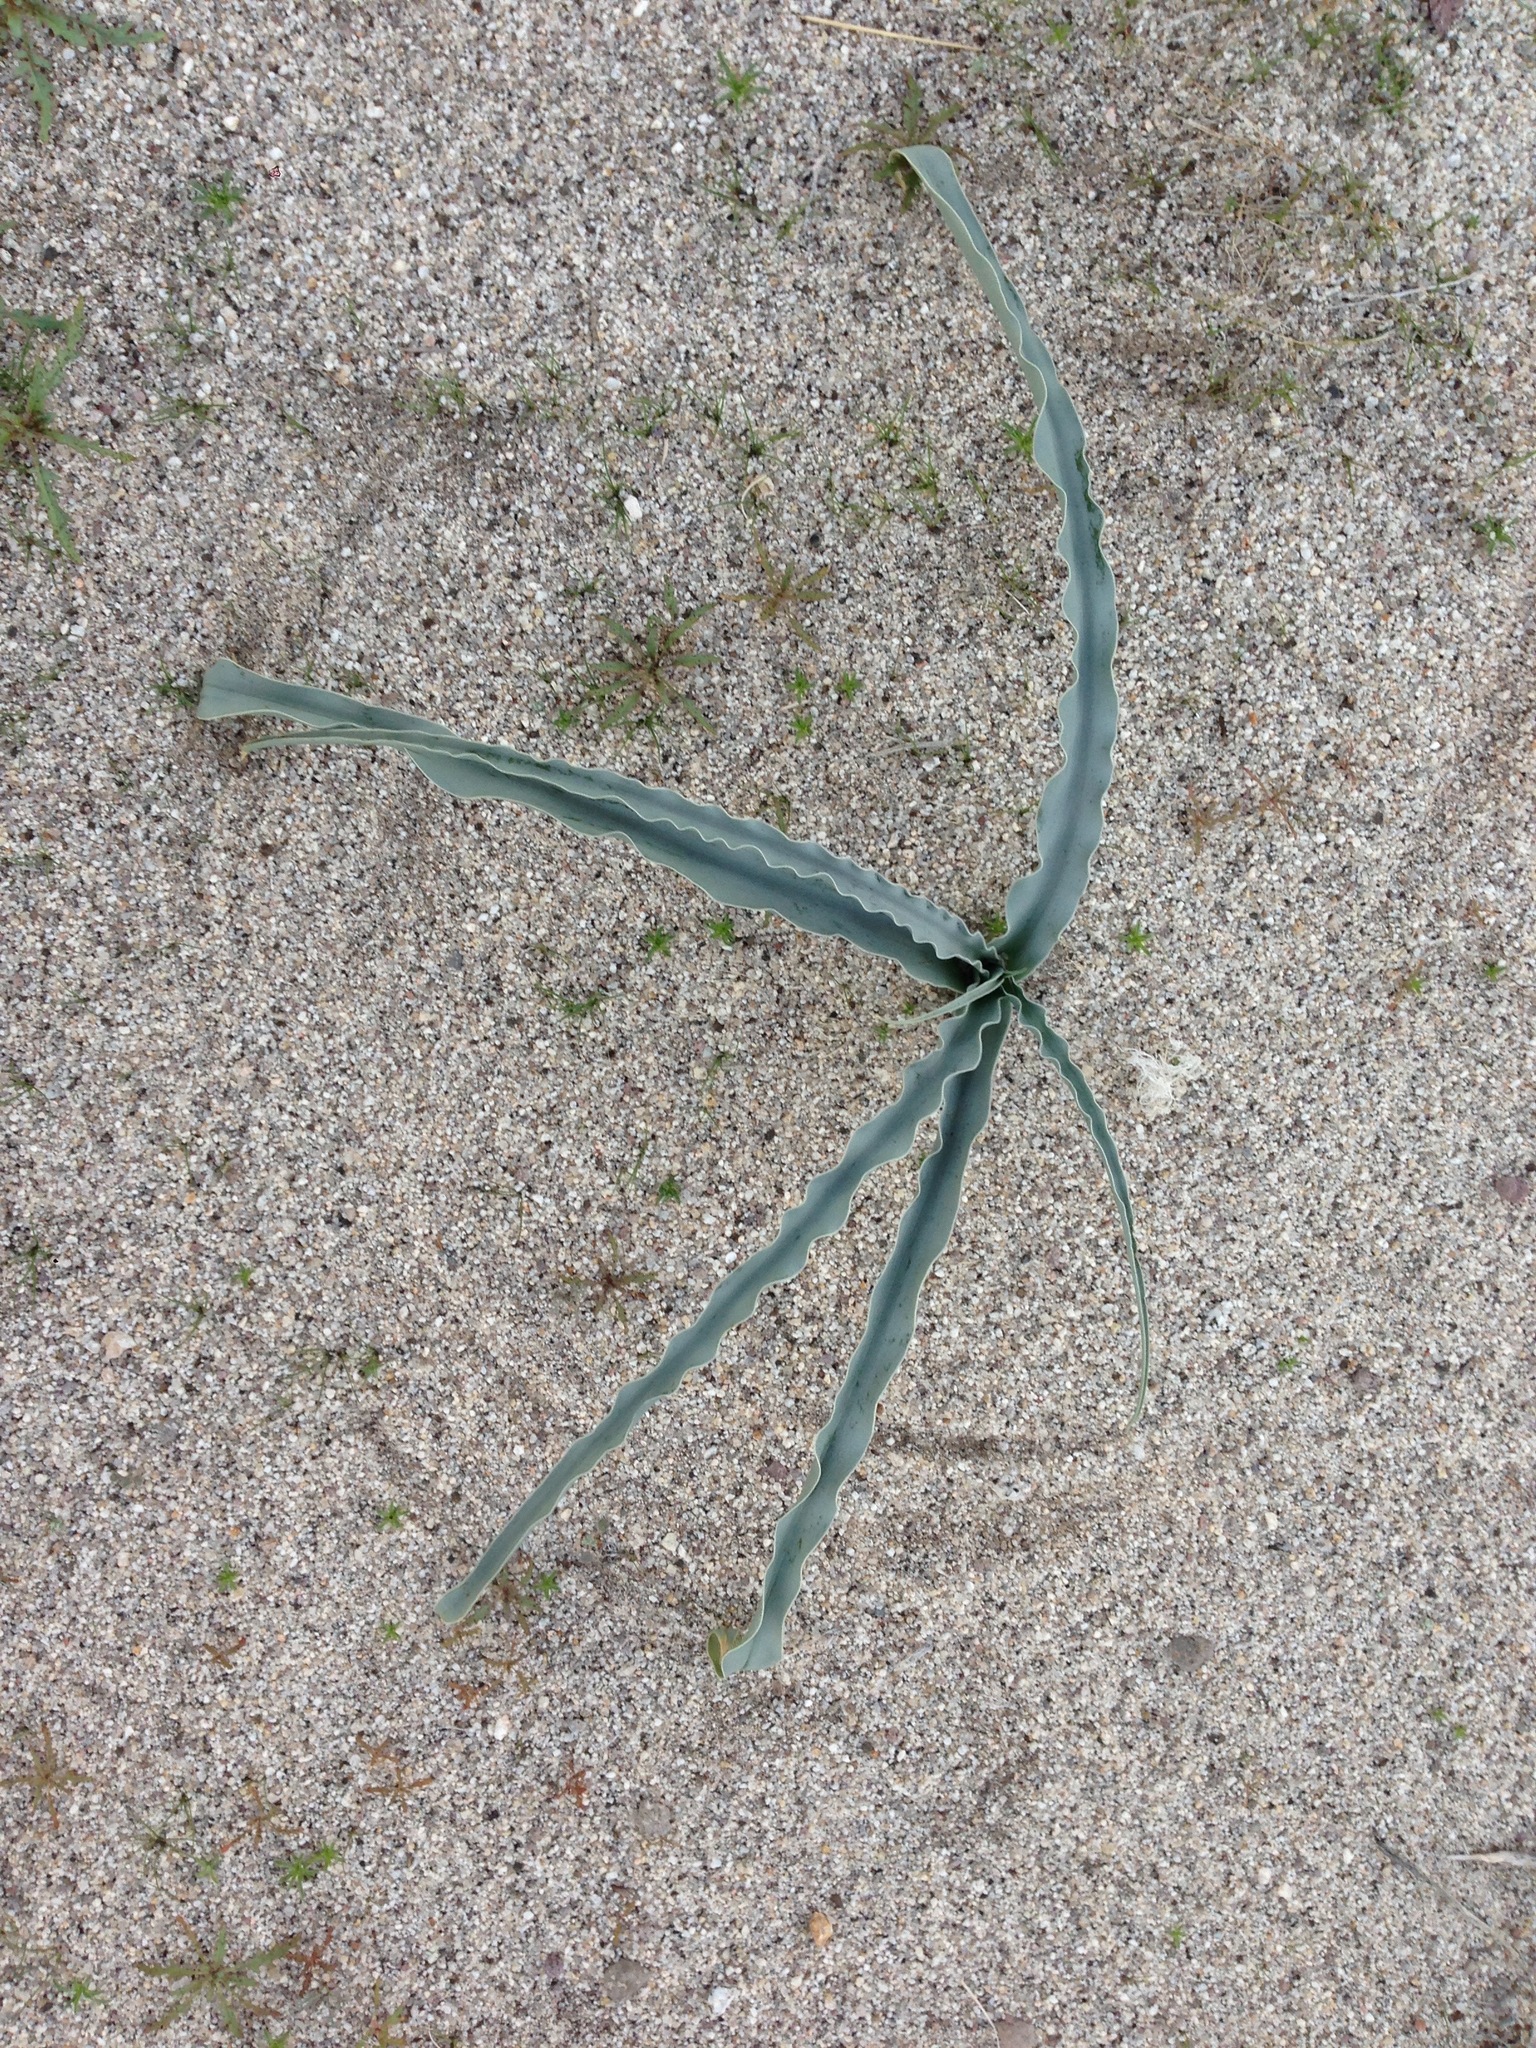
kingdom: Plantae
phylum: Tracheophyta
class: Liliopsida
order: Asparagales
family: Asparagaceae
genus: Hesperocallis
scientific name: Hesperocallis undulata
